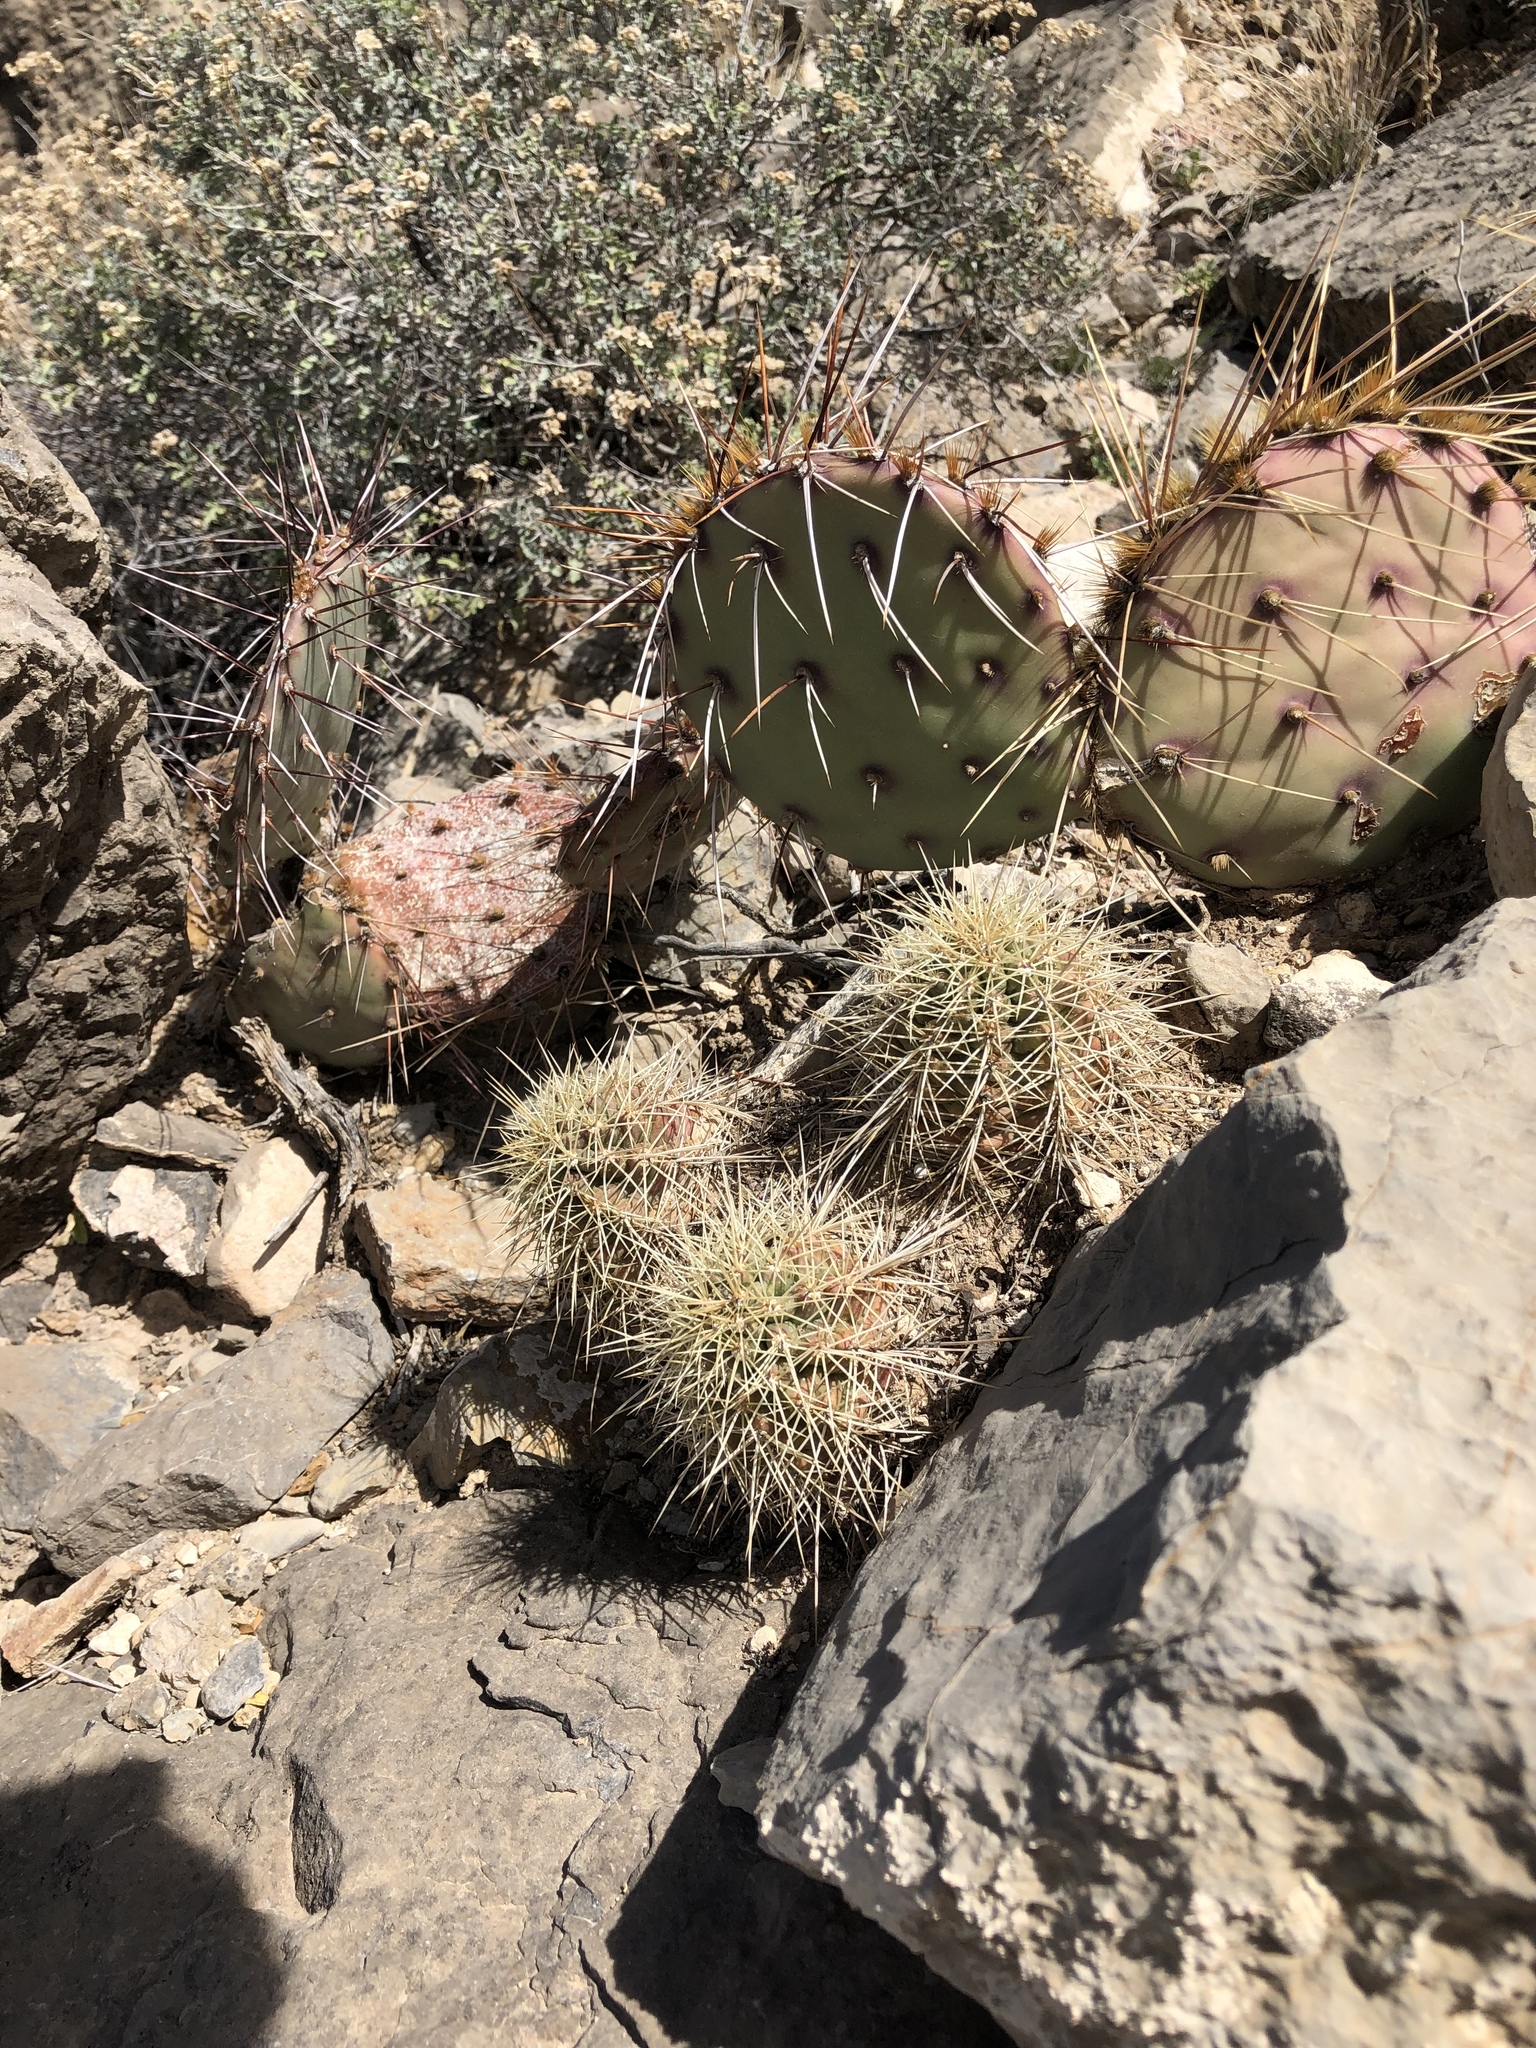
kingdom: Plantae
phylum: Tracheophyta
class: Magnoliopsida
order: Caryophyllales
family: Cactaceae
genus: Echinocereus
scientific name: Echinocereus coccineus
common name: Scarlet hedgehog cactus
